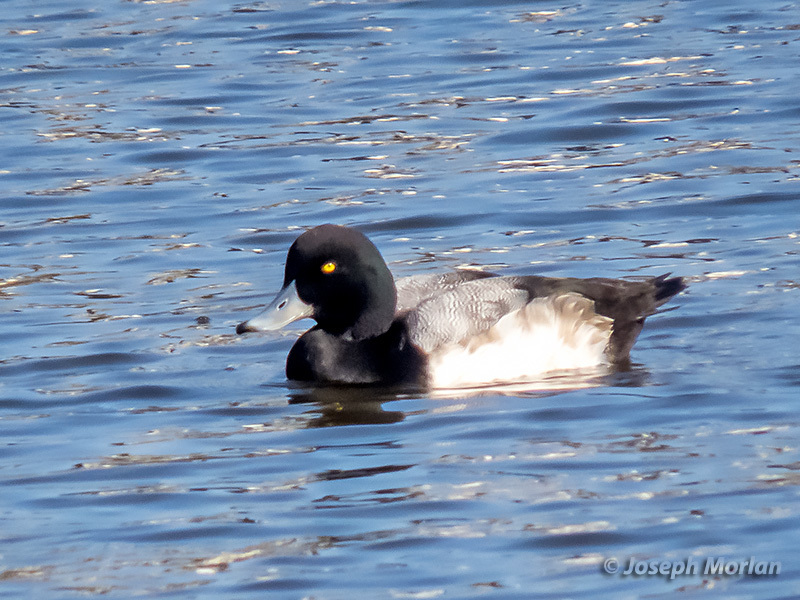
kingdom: Animalia
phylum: Chordata
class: Aves
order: Anseriformes
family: Anatidae
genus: Aythya
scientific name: Aythya marila
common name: Greater scaup
